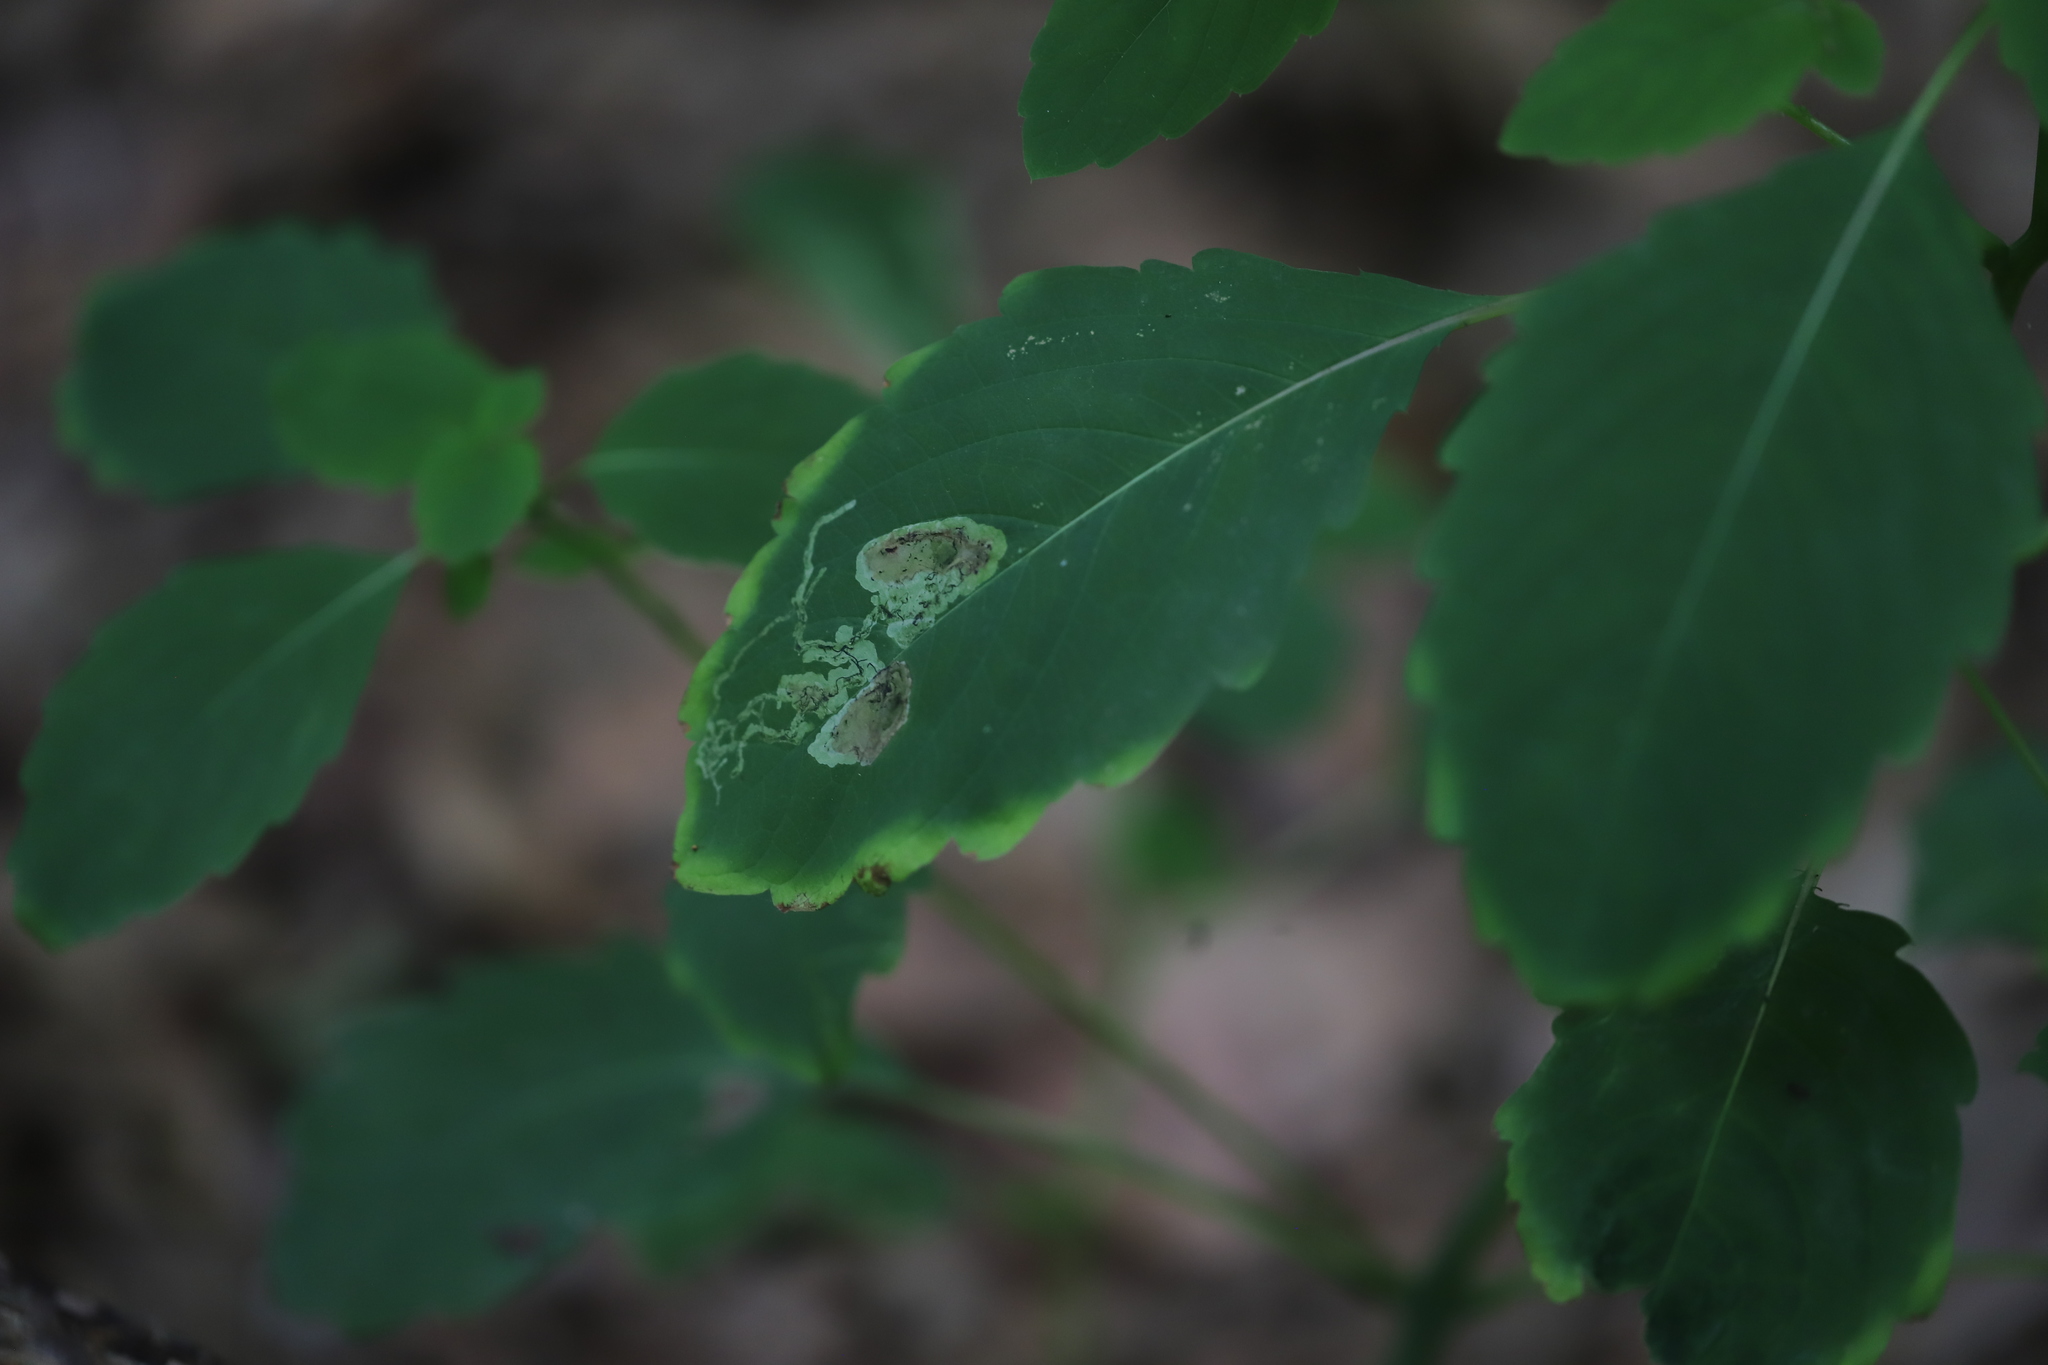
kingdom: Animalia
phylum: Arthropoda
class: Insecta
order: Diptera
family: Agromyzidae
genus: Phytoliriomyza
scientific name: Phytoliriomyza melampyga
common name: Jewelweed leaf-miner fly
